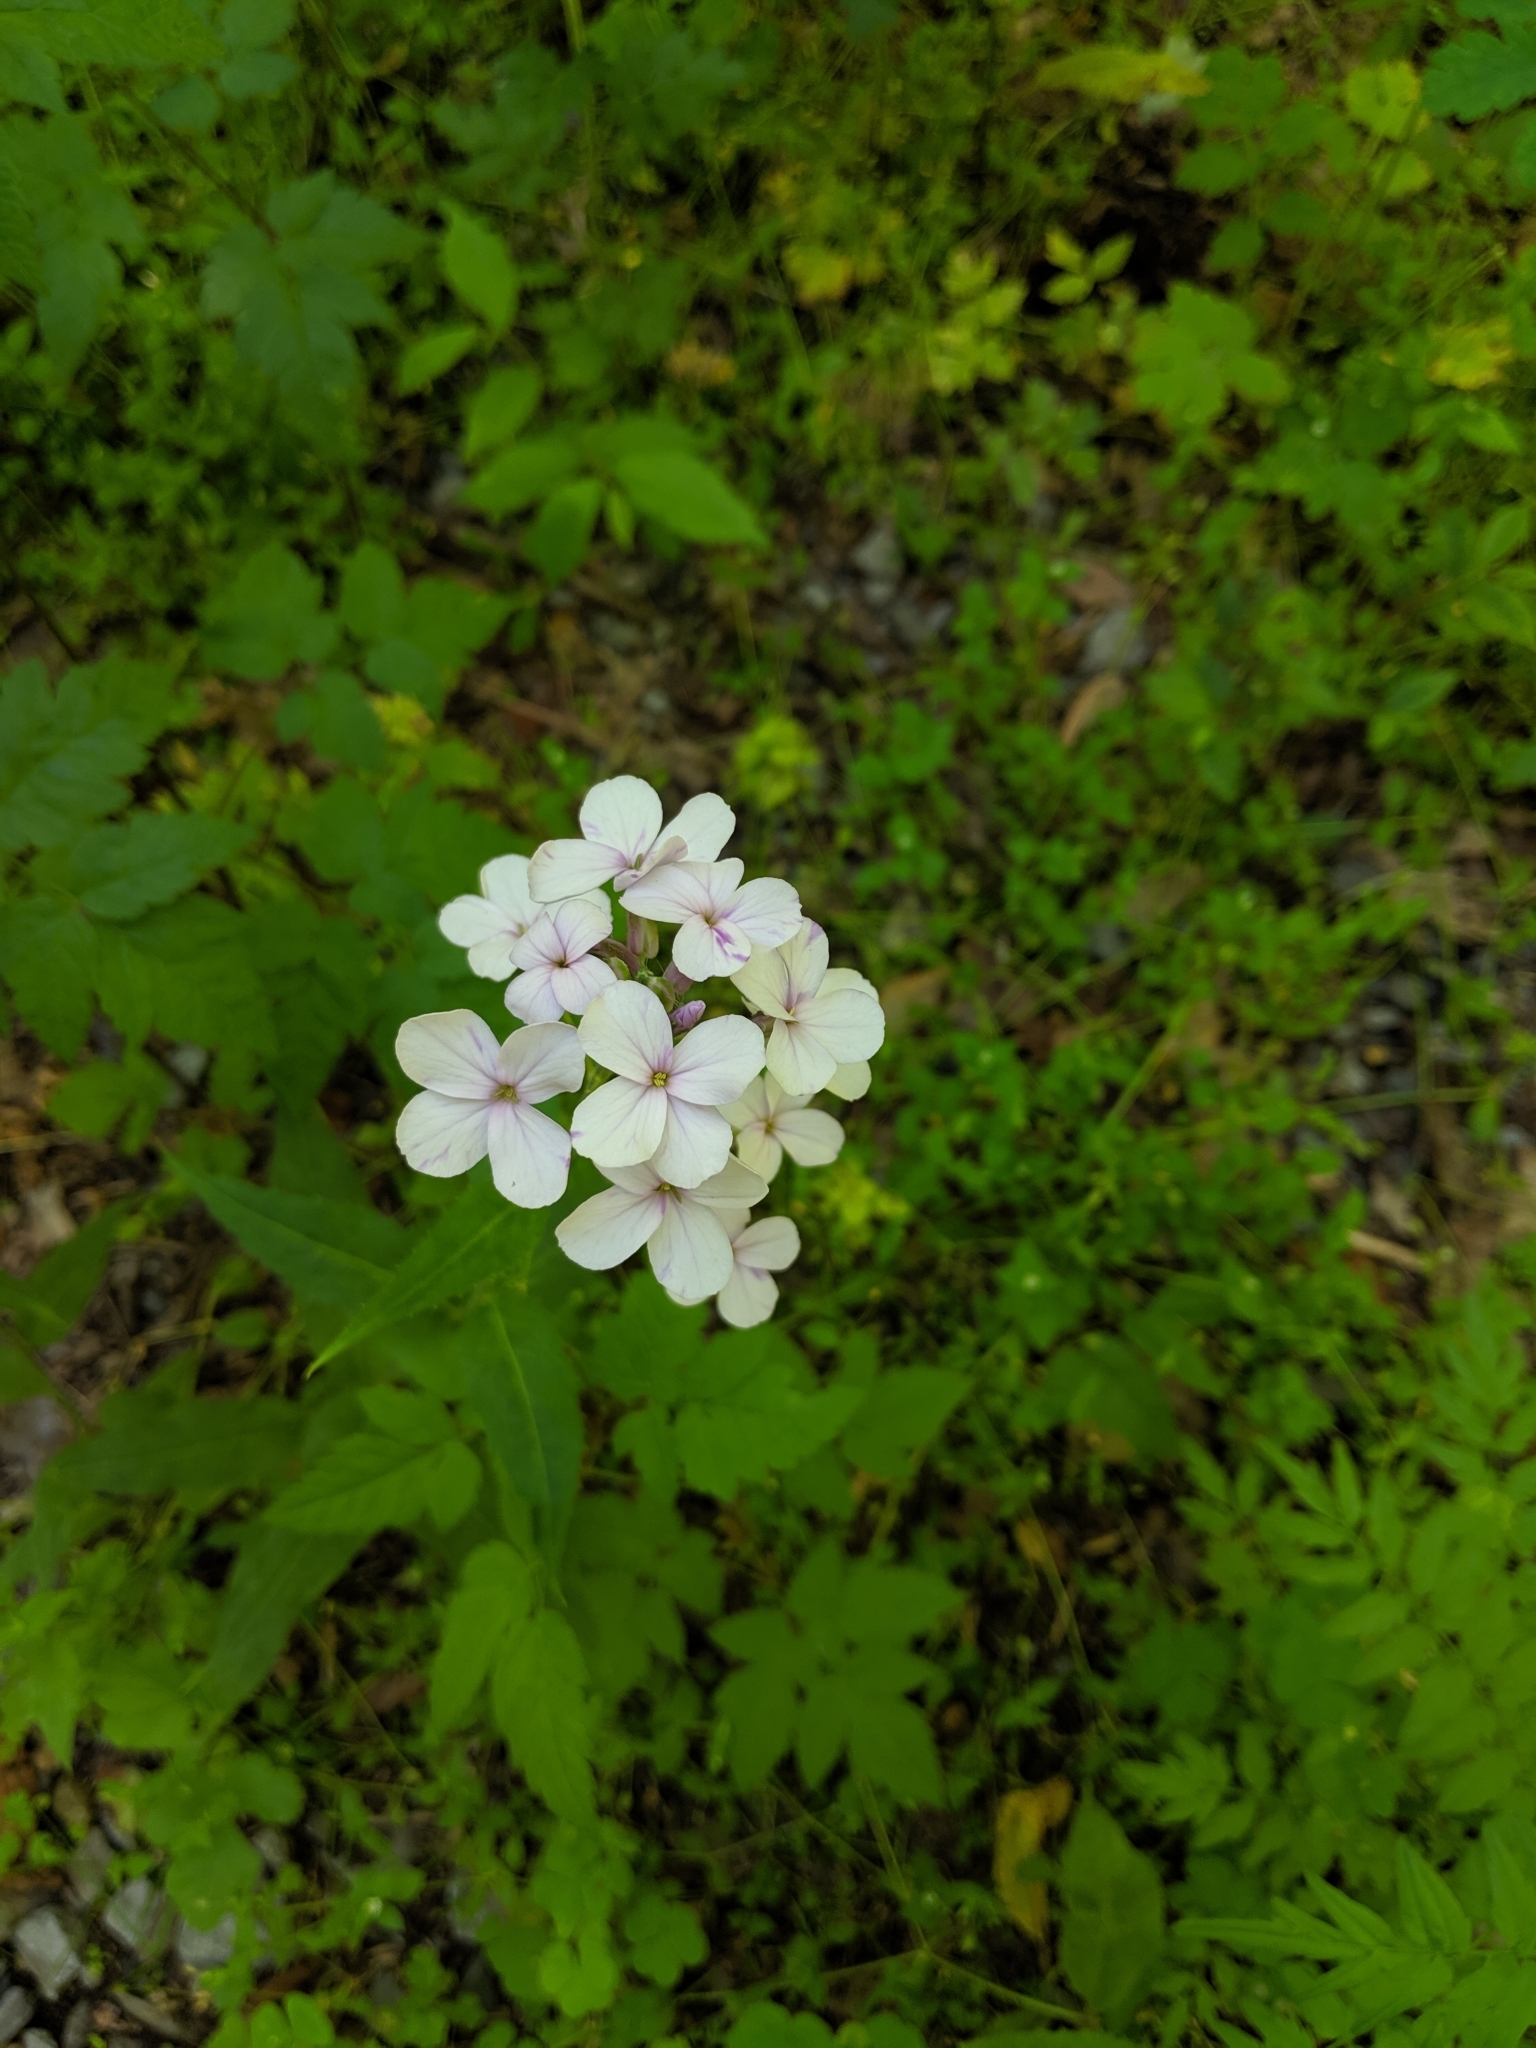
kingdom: Plantae
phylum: Tracheophyta
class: Magnoliopsida
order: Brassicales
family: Brassicaceae
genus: Hesperis
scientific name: Hesperis matronalis
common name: Dame's-violet
